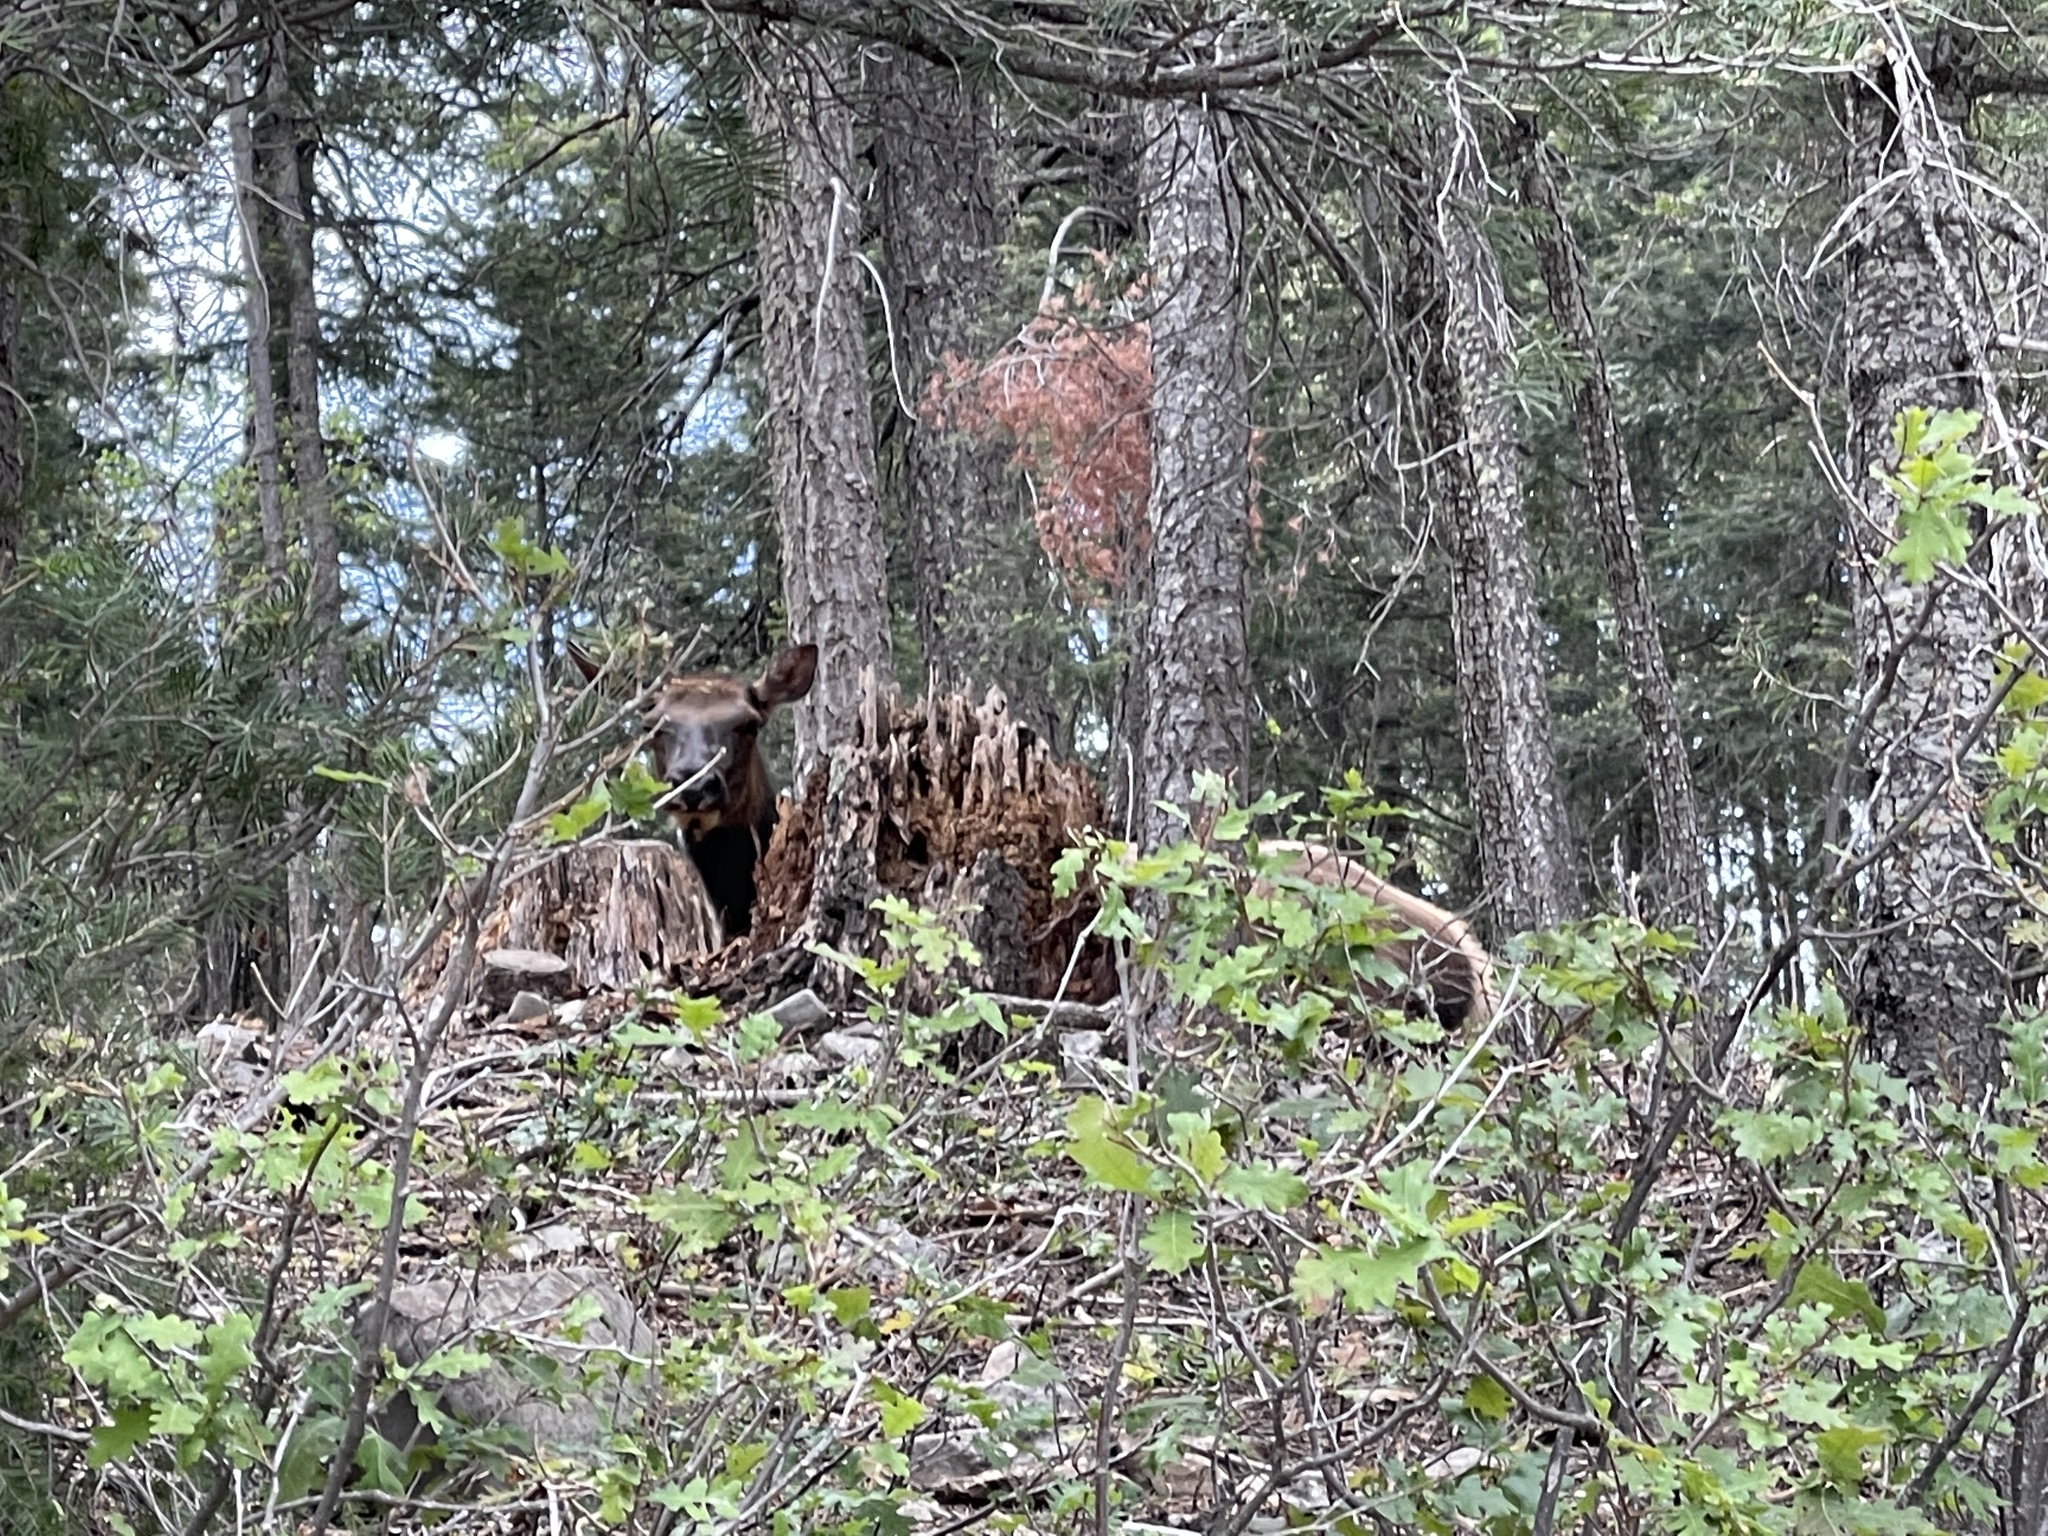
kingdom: Animalia
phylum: Chordata
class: Mammalia
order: Artiodactyla
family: Cervidae
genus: Cervus
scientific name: Cervus elaphus
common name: Red deer
